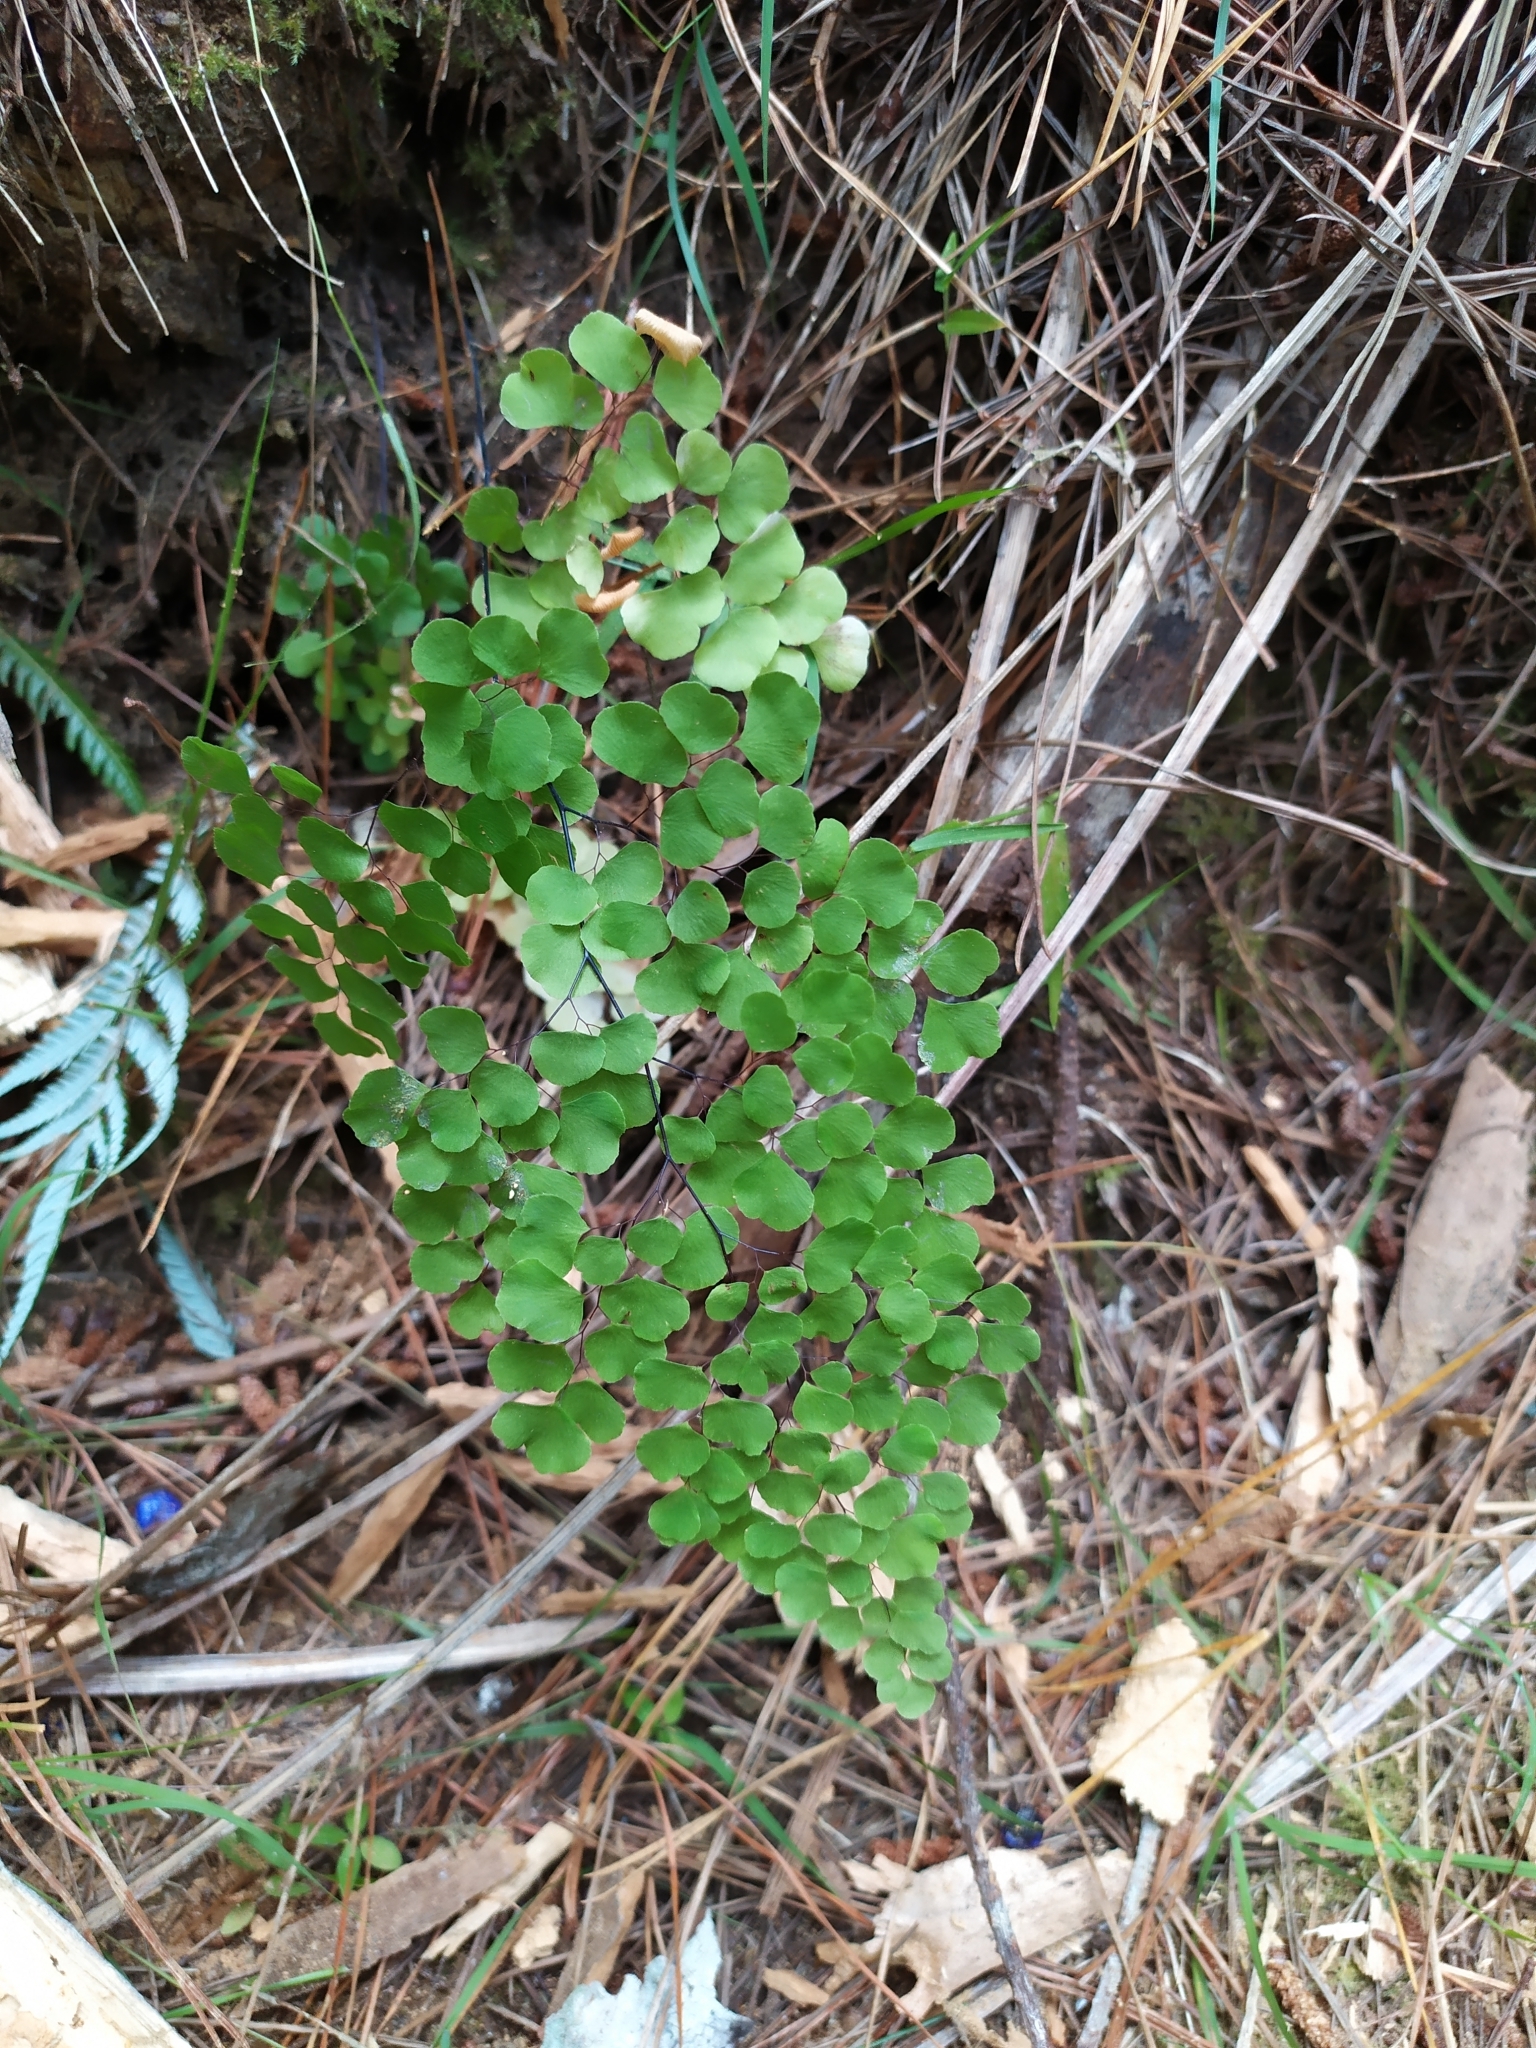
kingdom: Plantae
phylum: Tracheophyta
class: Polypodiopsida
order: Polypodiales
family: Pteridaceae
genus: Adiantum
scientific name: Adiantum aethiopicum
